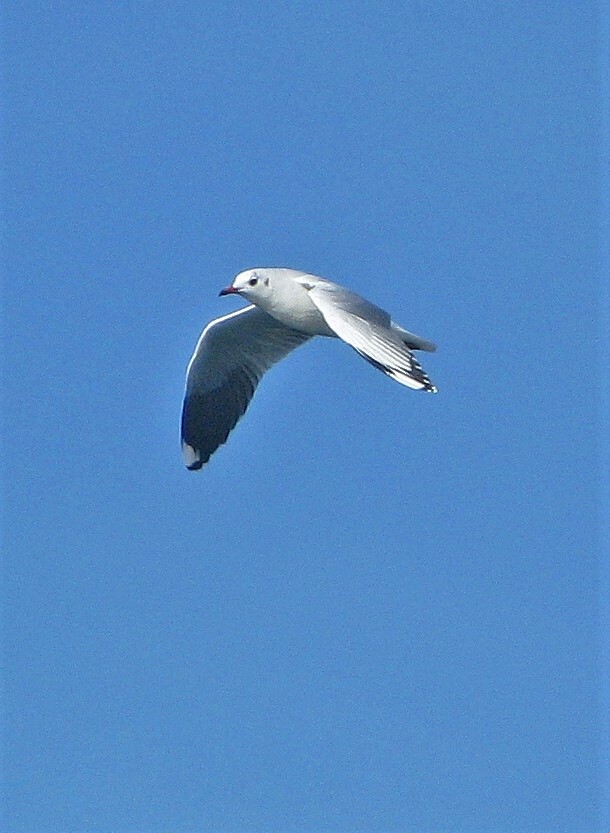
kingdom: Animalia
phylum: Chordata
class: Aves
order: Charadriiformes
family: Laridae
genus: Chroicocephalus
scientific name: Chroicocephalus maculipennis
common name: Brown-hooded gull
